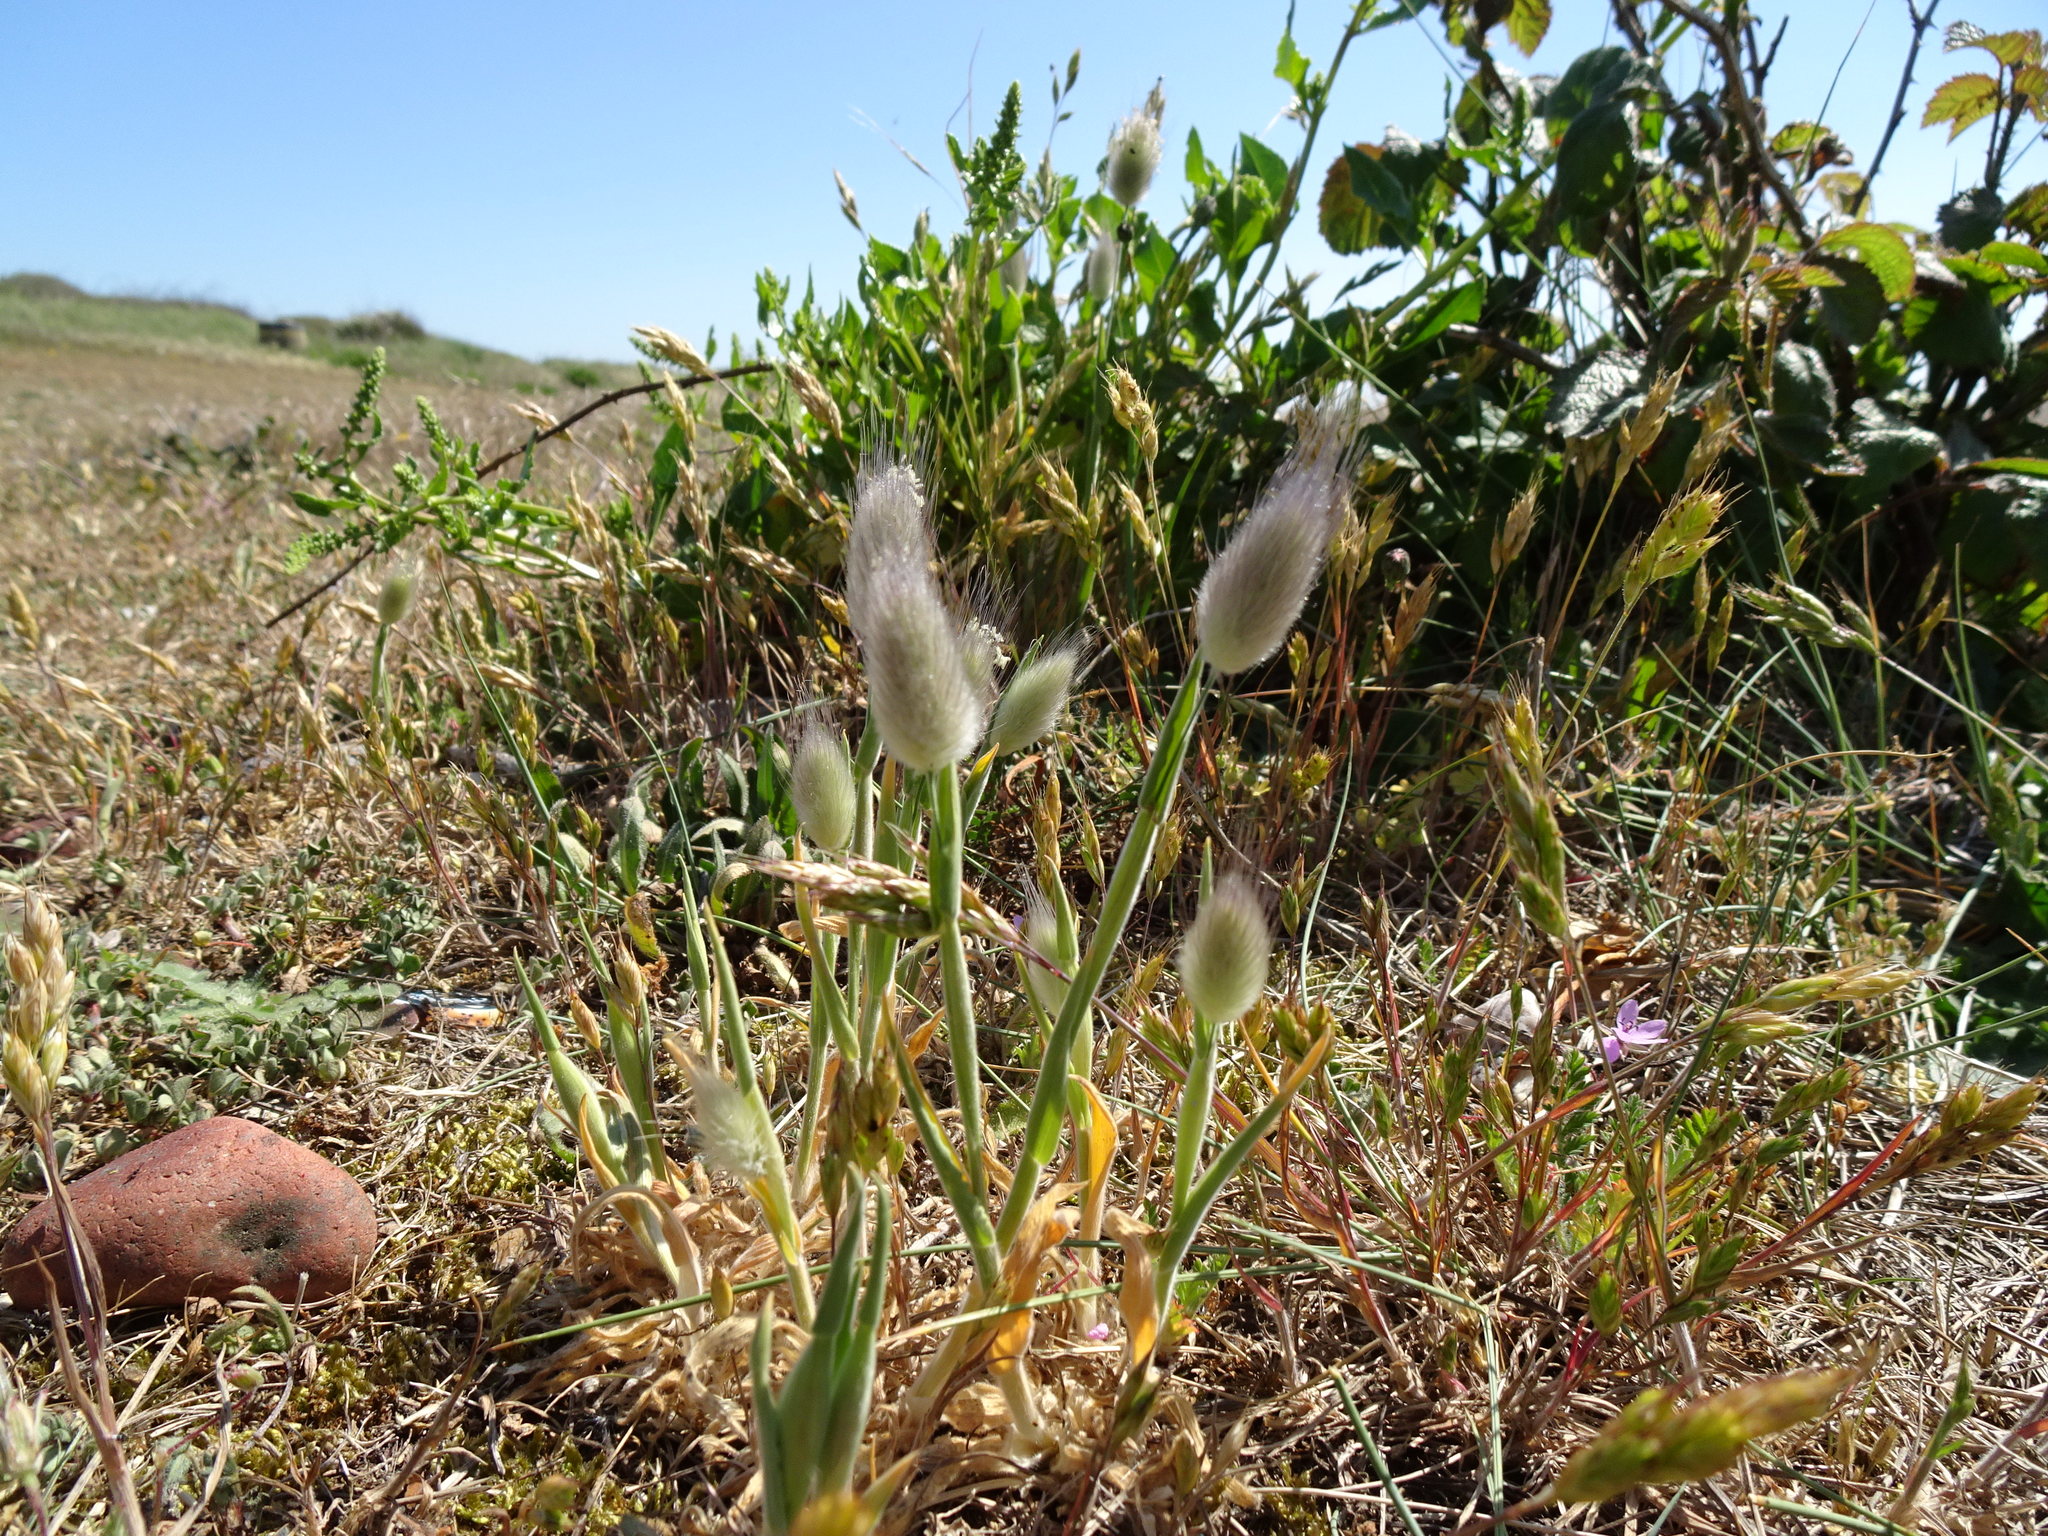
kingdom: Plantae
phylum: Tracheophyta
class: Liliopsida
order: Poales
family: Poaceae
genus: Lagurus
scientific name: Lagurus ovatus
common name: Hare's-tail
